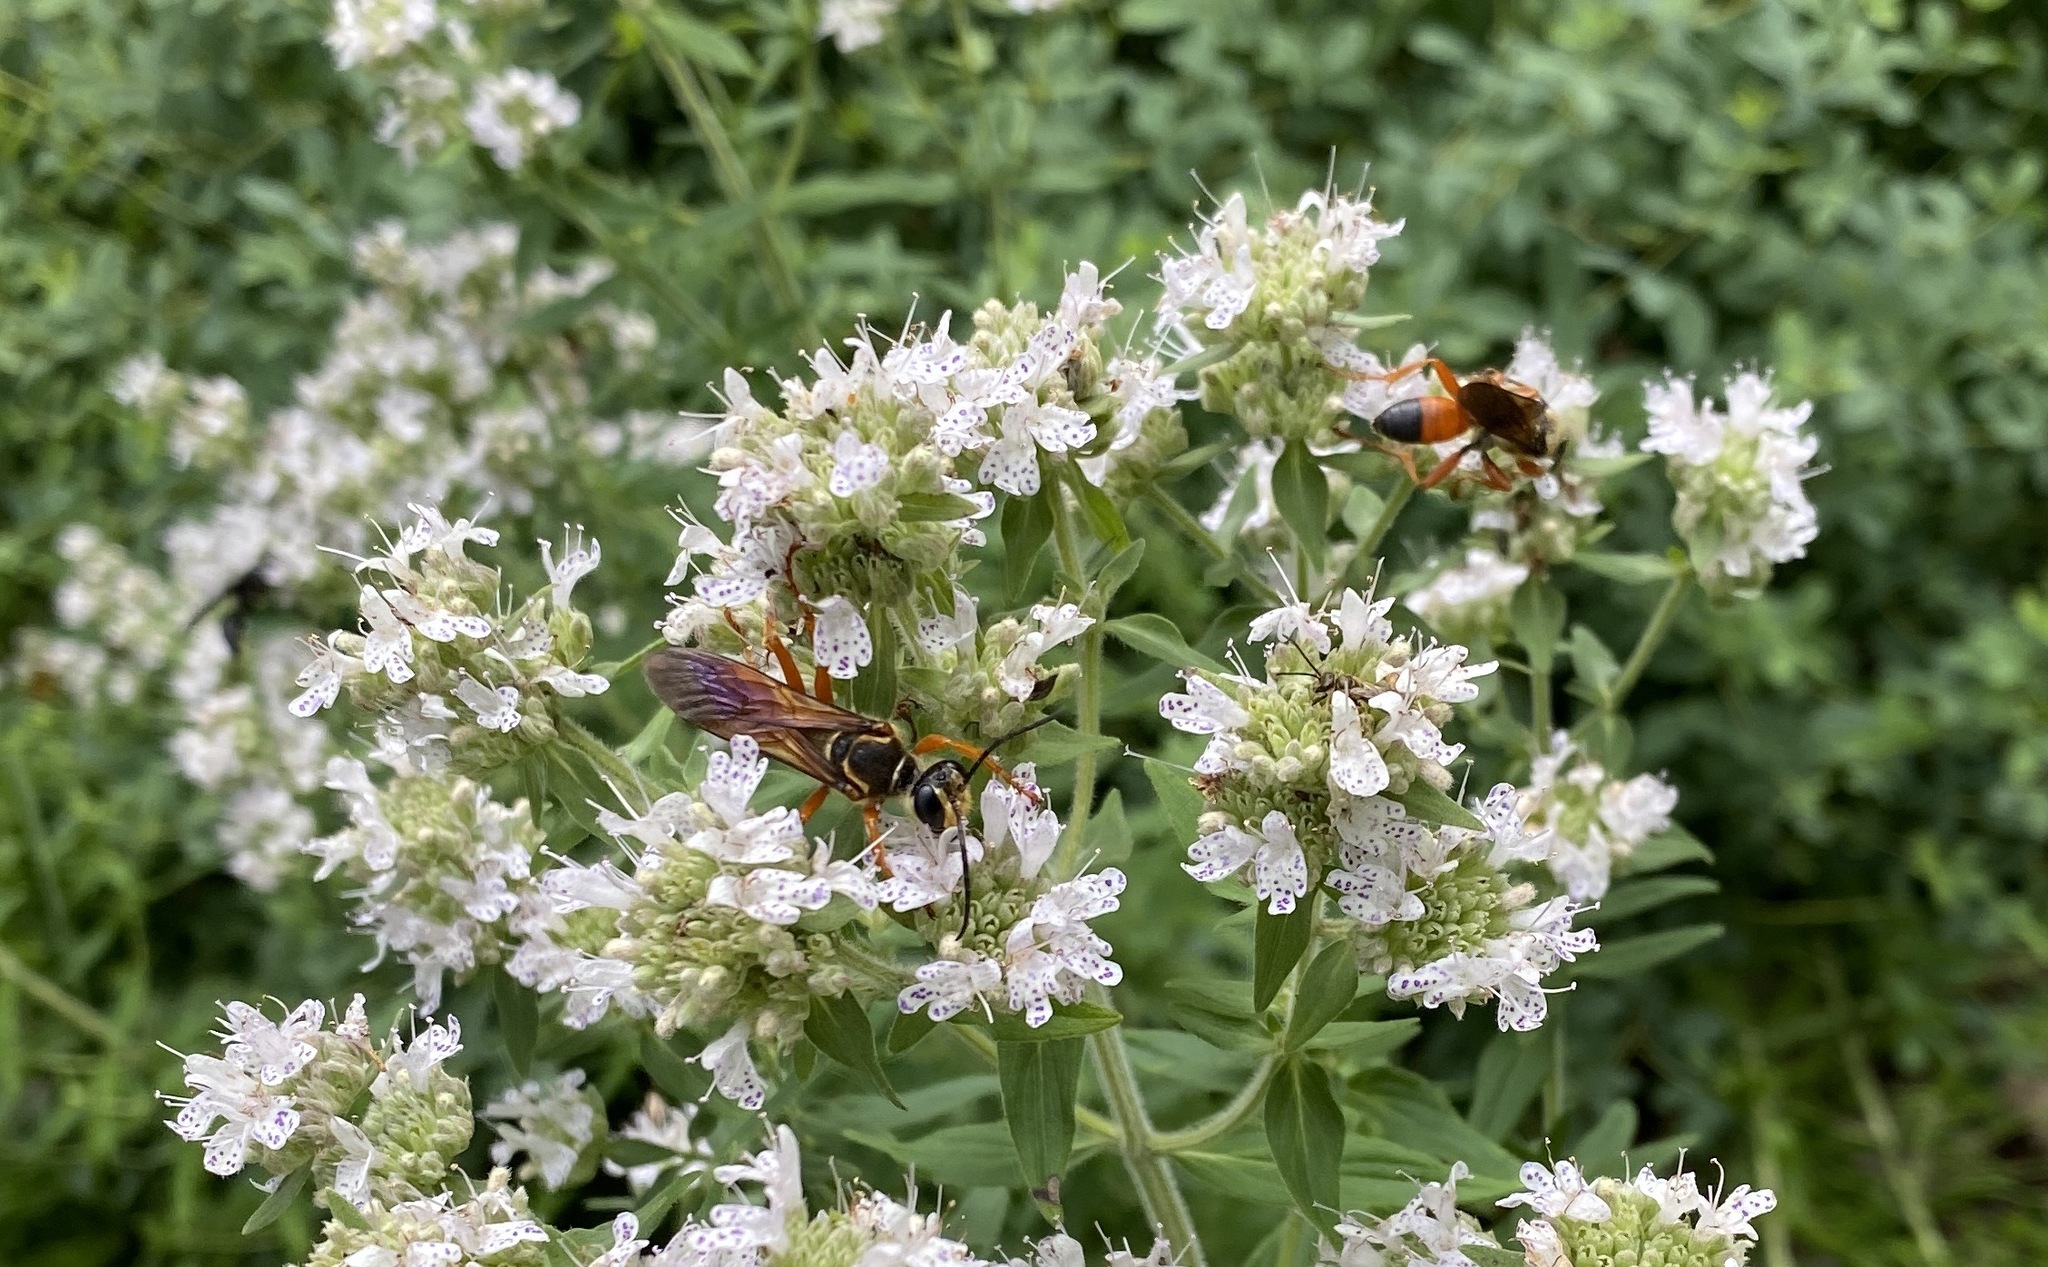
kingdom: Animalia
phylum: Arthropoda
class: Insecta
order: Hymenoptera
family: Sphecidae
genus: Sphex
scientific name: Sphex ichneumoneus
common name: Great golden digger wasp
